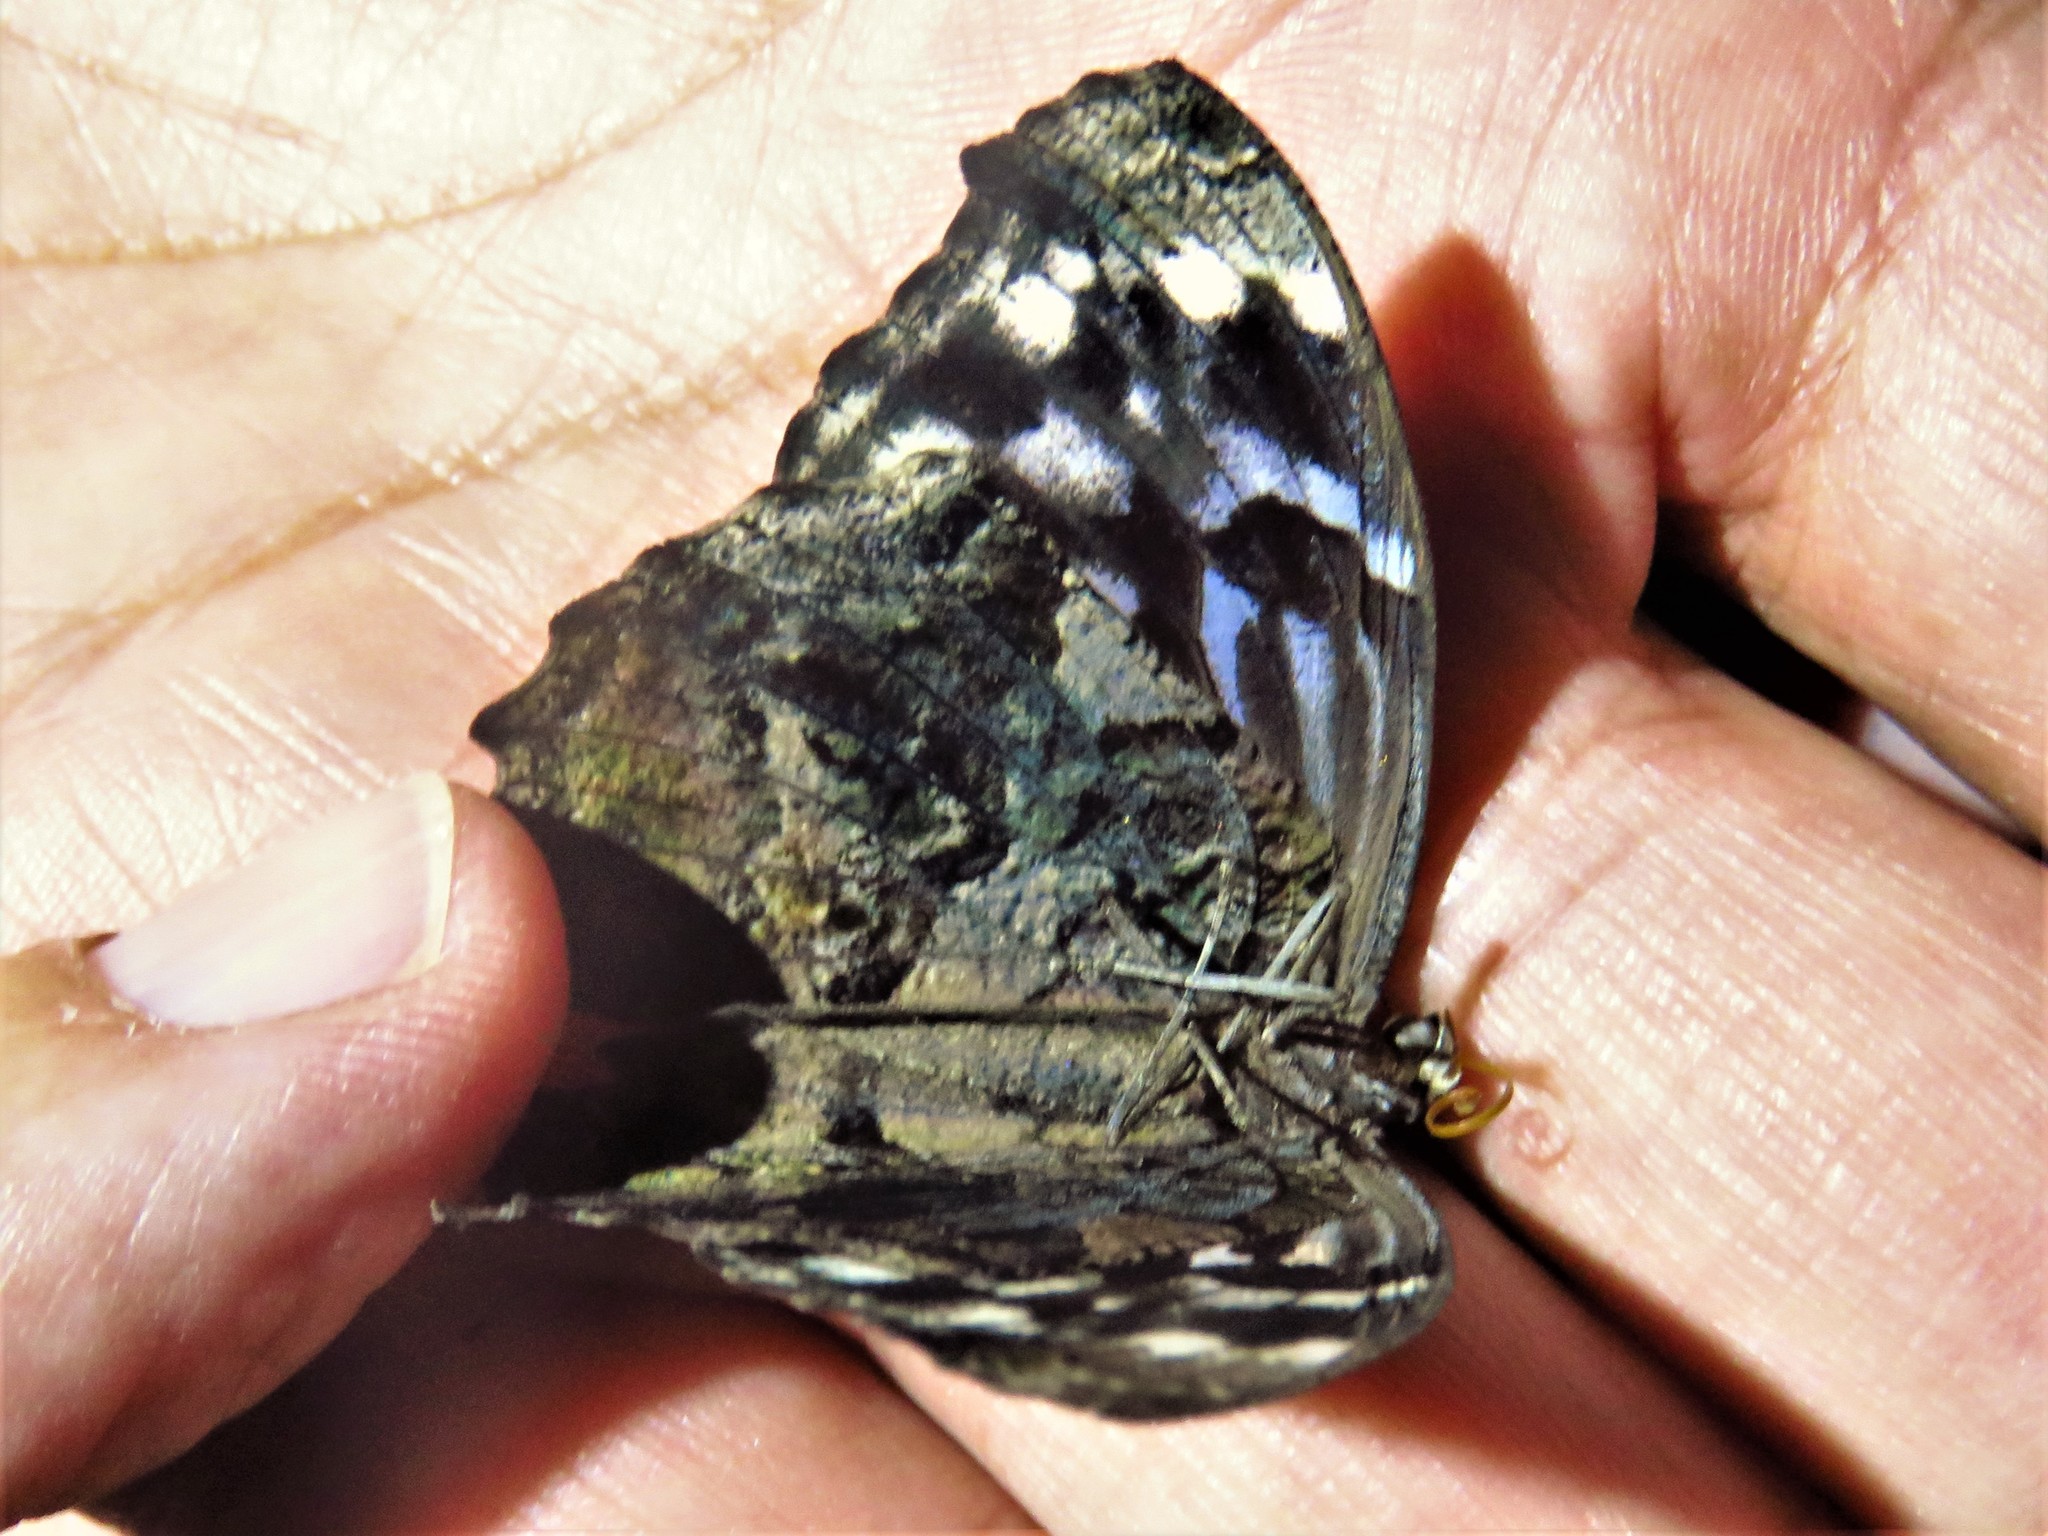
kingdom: Animalia
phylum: Arthropoda
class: Insecta
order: Lepidoptera
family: Nymphalidae
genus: Myscelia
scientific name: Myscelia ethusa
